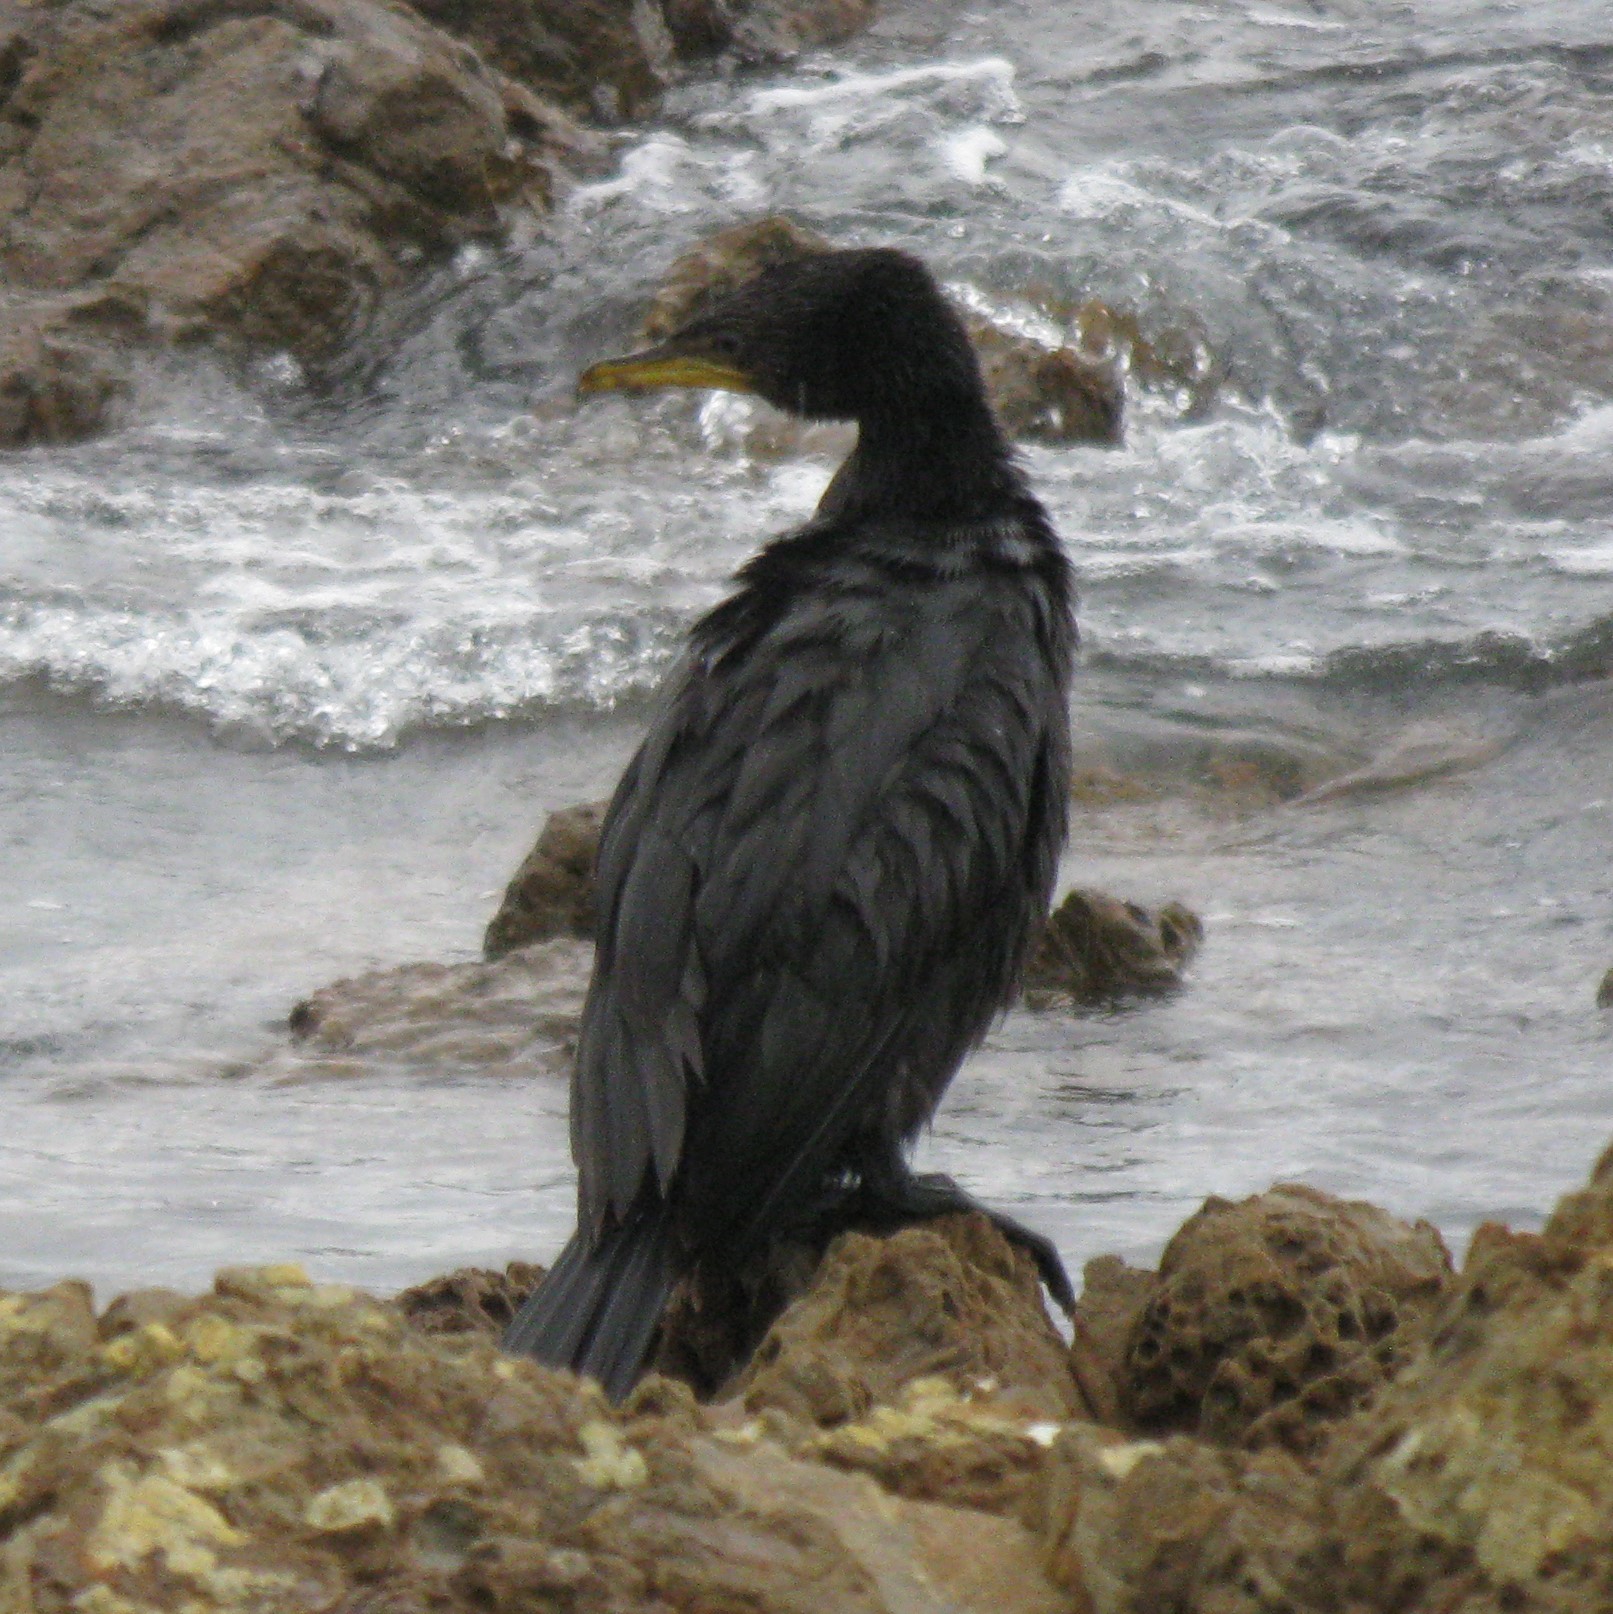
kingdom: Animalia
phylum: Chordata
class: Aves
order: Suliformes
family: Phalacrocoracidae
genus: Microcarbo
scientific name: Microcarbo melanoleucos
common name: Little pied cormorant
